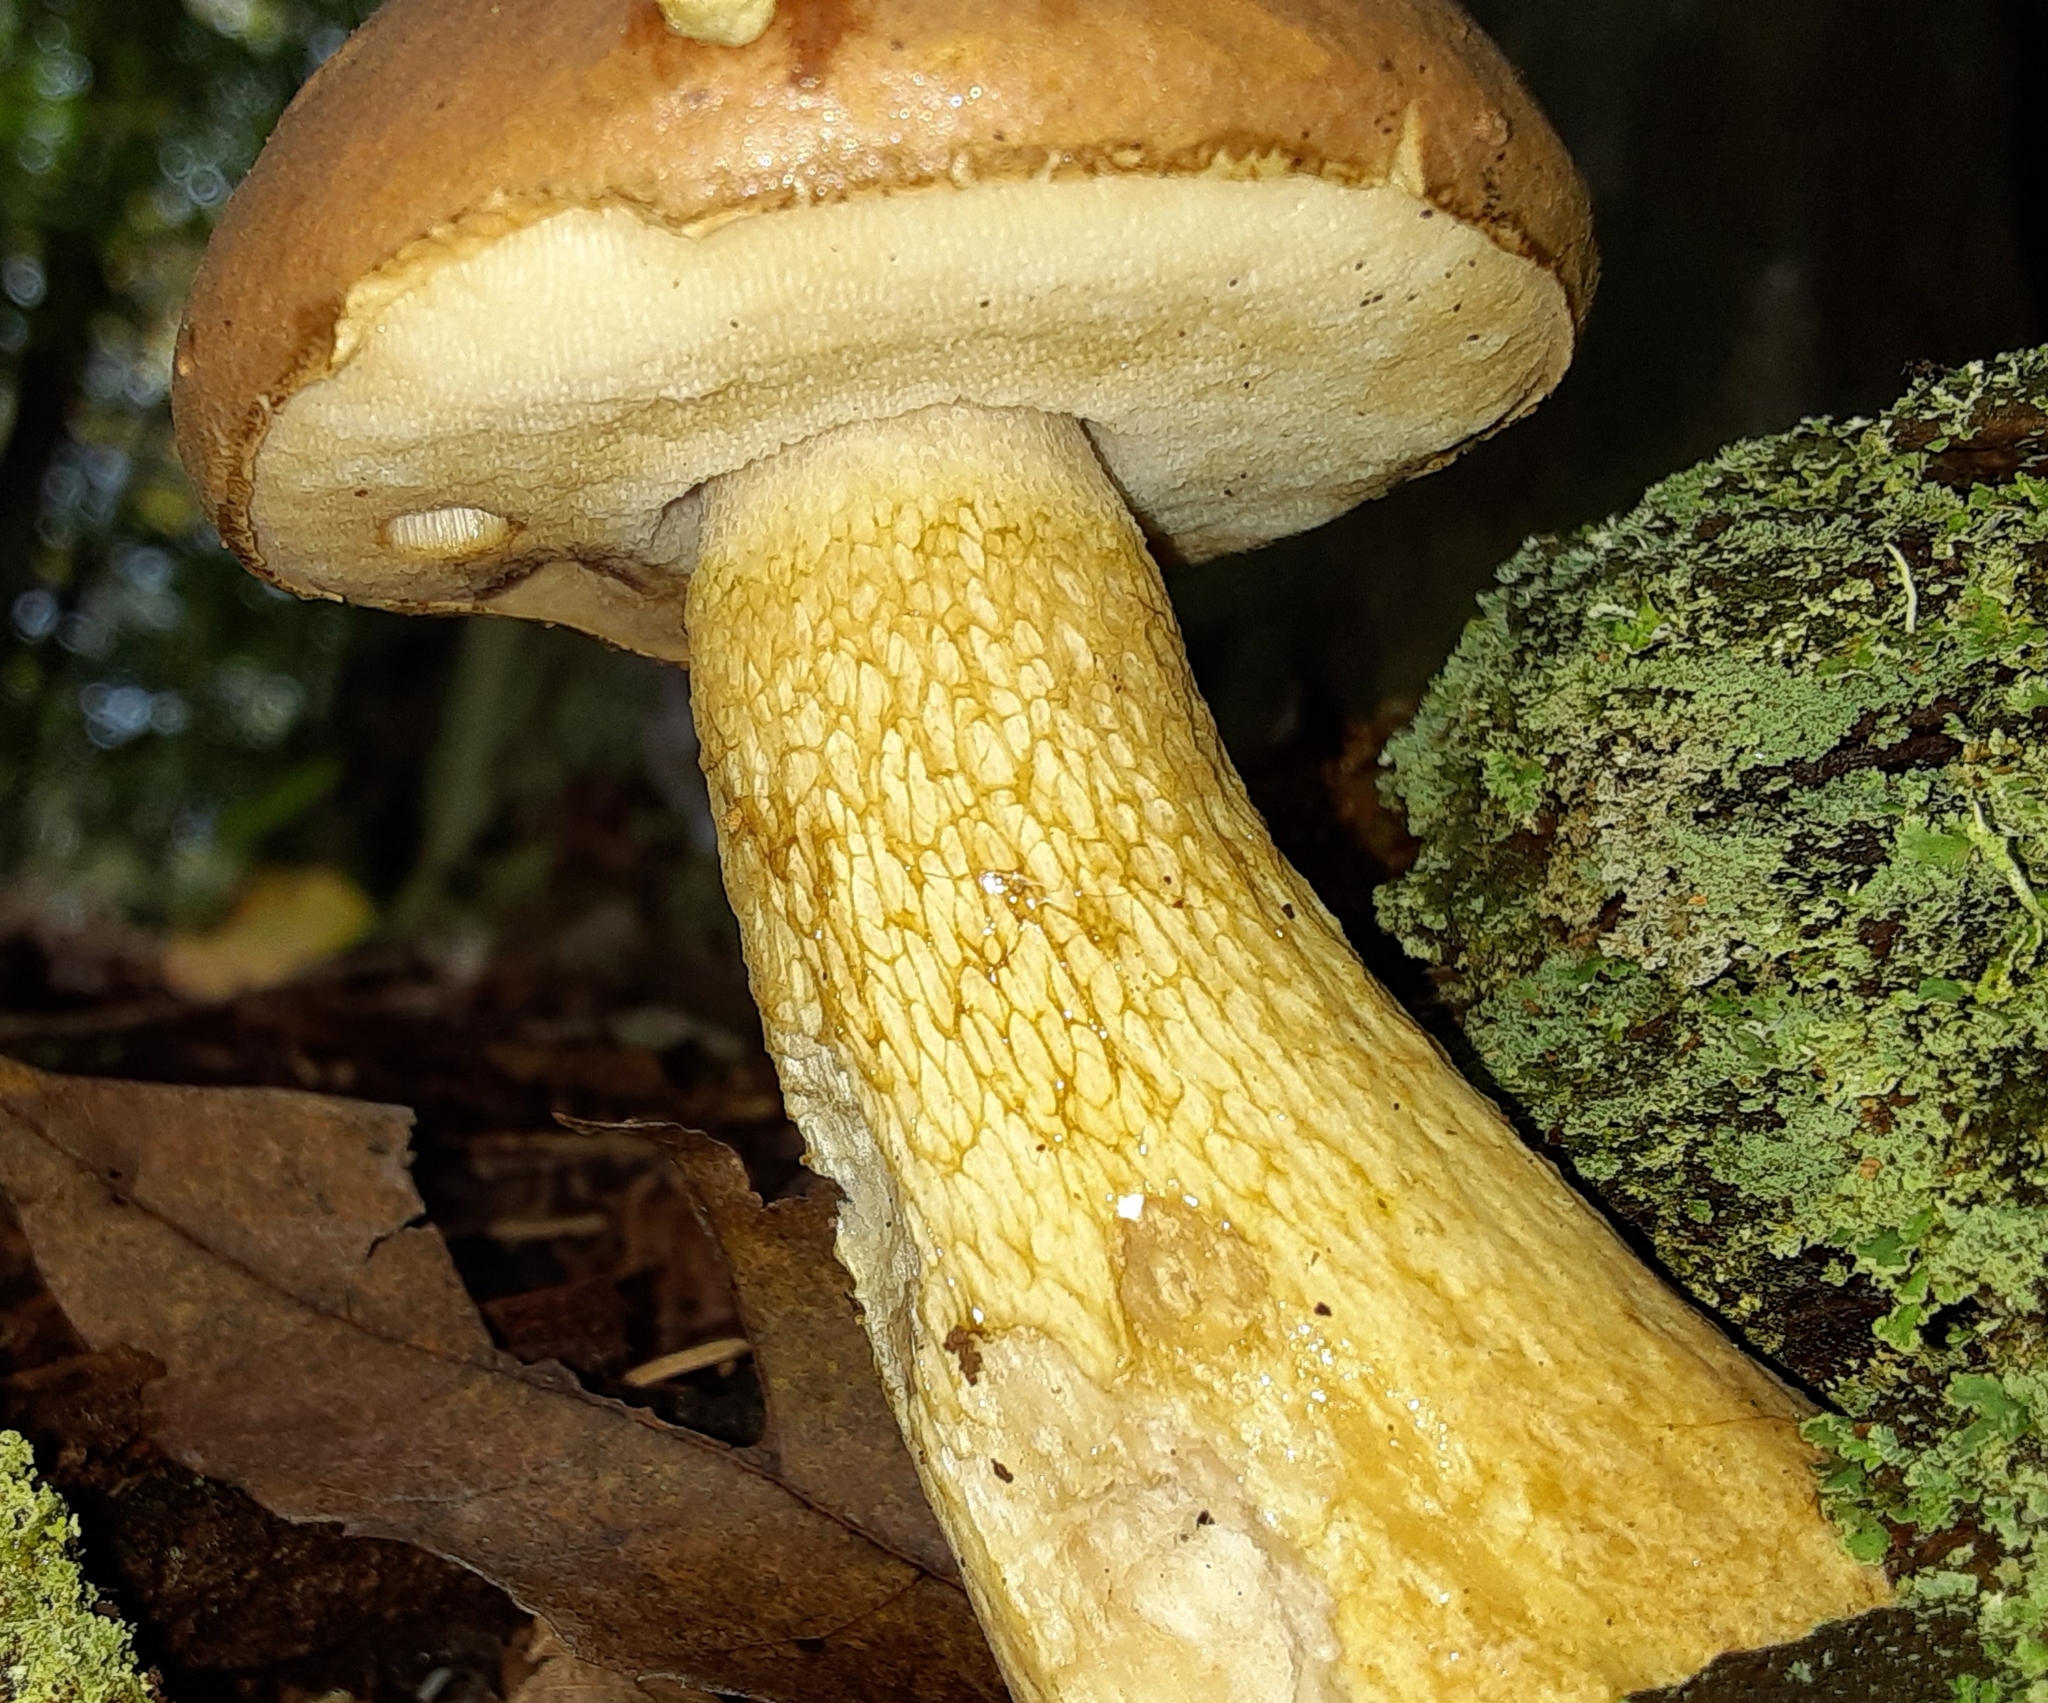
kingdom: Fungi
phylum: Basidiomycota
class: Agaricomycetes
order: Boletales
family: Boletaceae
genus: Tylopilus
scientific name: Tylopilus felleus
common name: Bitter bolete
